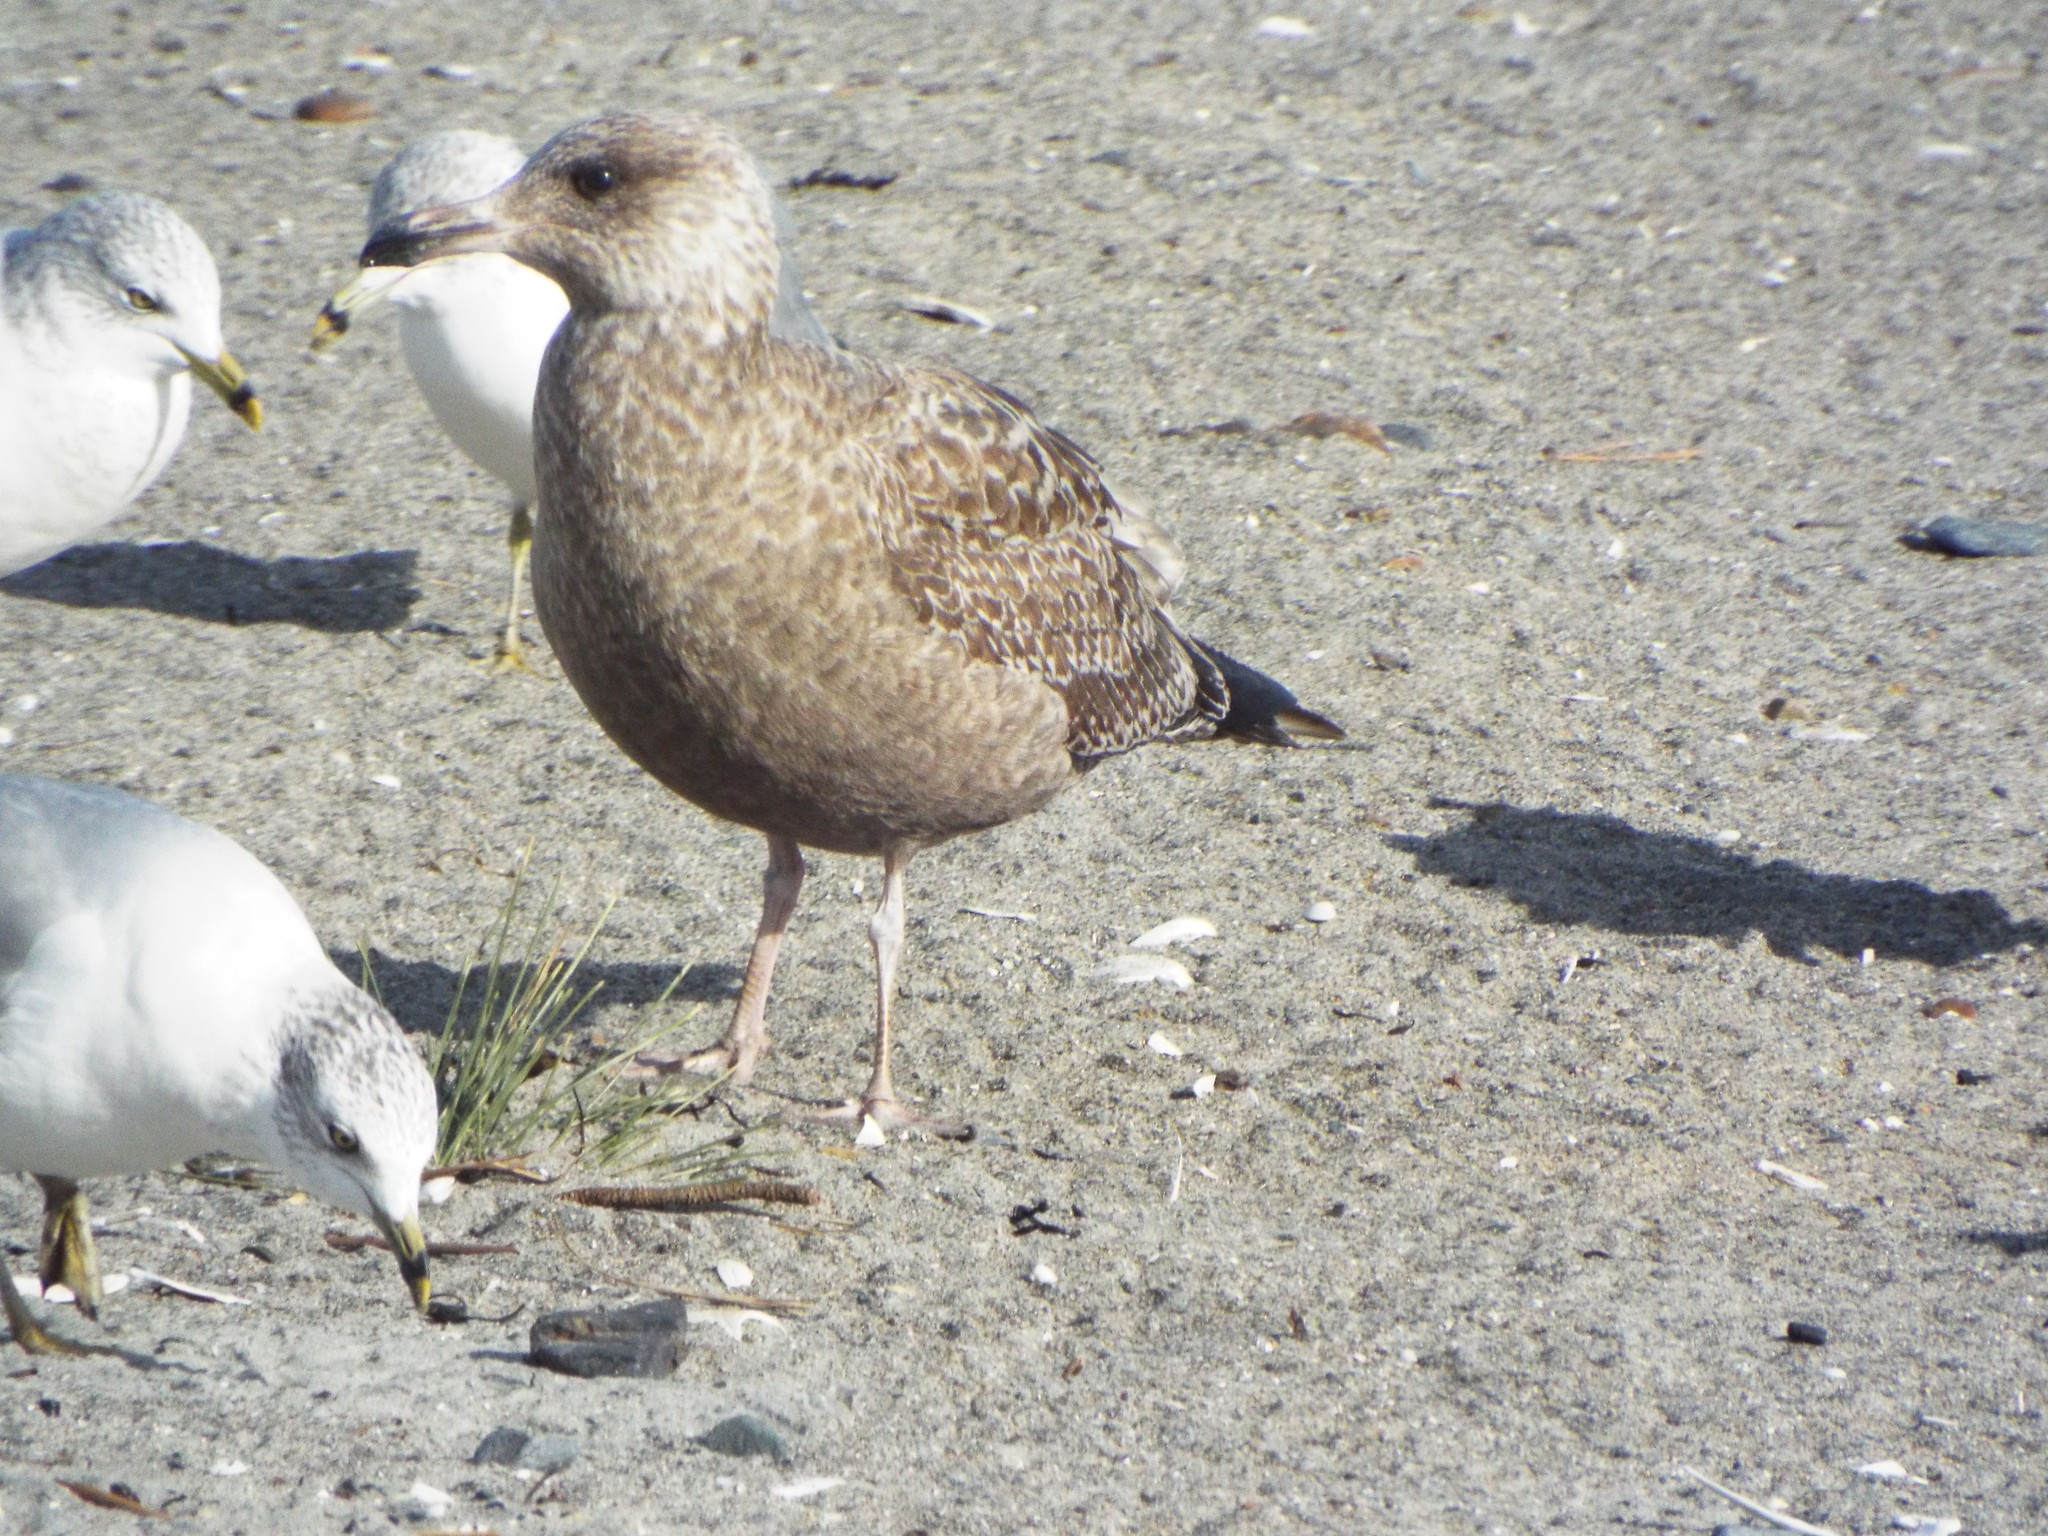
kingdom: Animalia
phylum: Chordata
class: Aves
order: Charadriiformes
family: Laridae
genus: Larus
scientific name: Larus argentatus
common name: Herring gull
